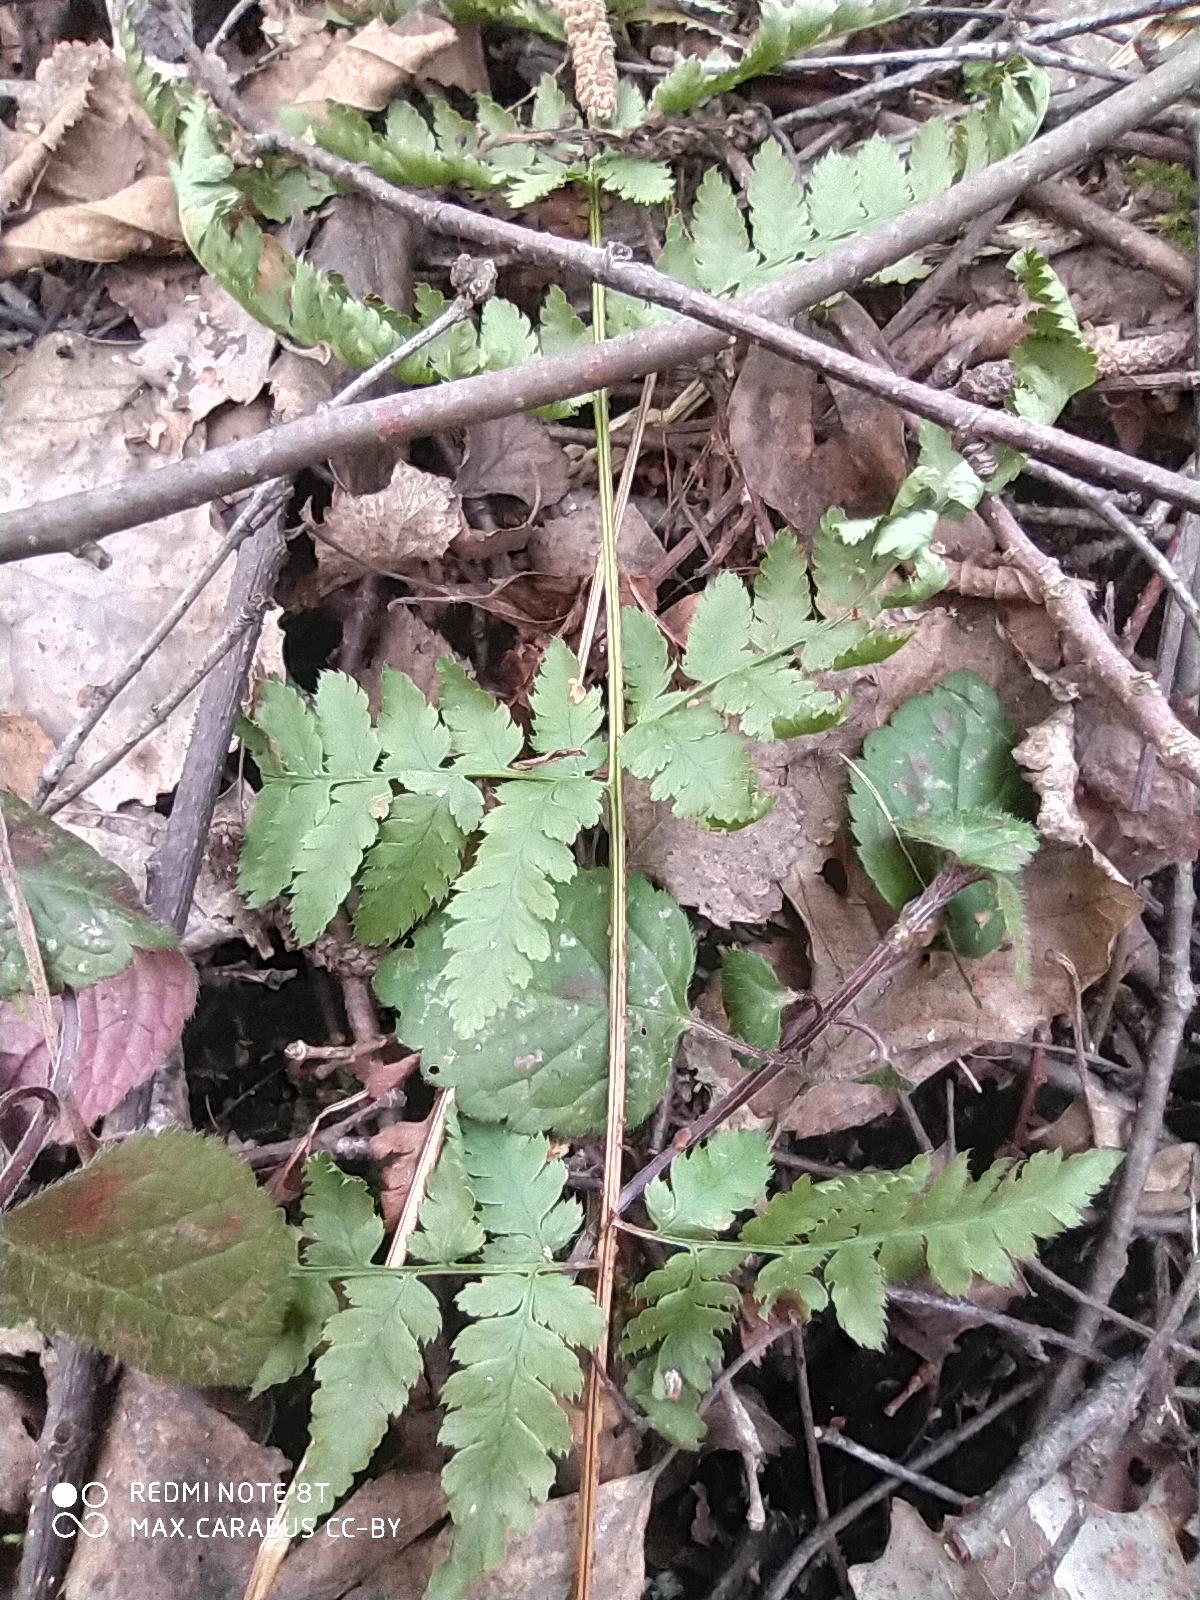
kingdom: Plantae
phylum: Tracheophyta
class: Polypodiopsida
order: Polypodiales
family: Dryopteridaceae
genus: Dryopteris
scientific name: Dryopteris carthusiana
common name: Narrow buckler-fern
